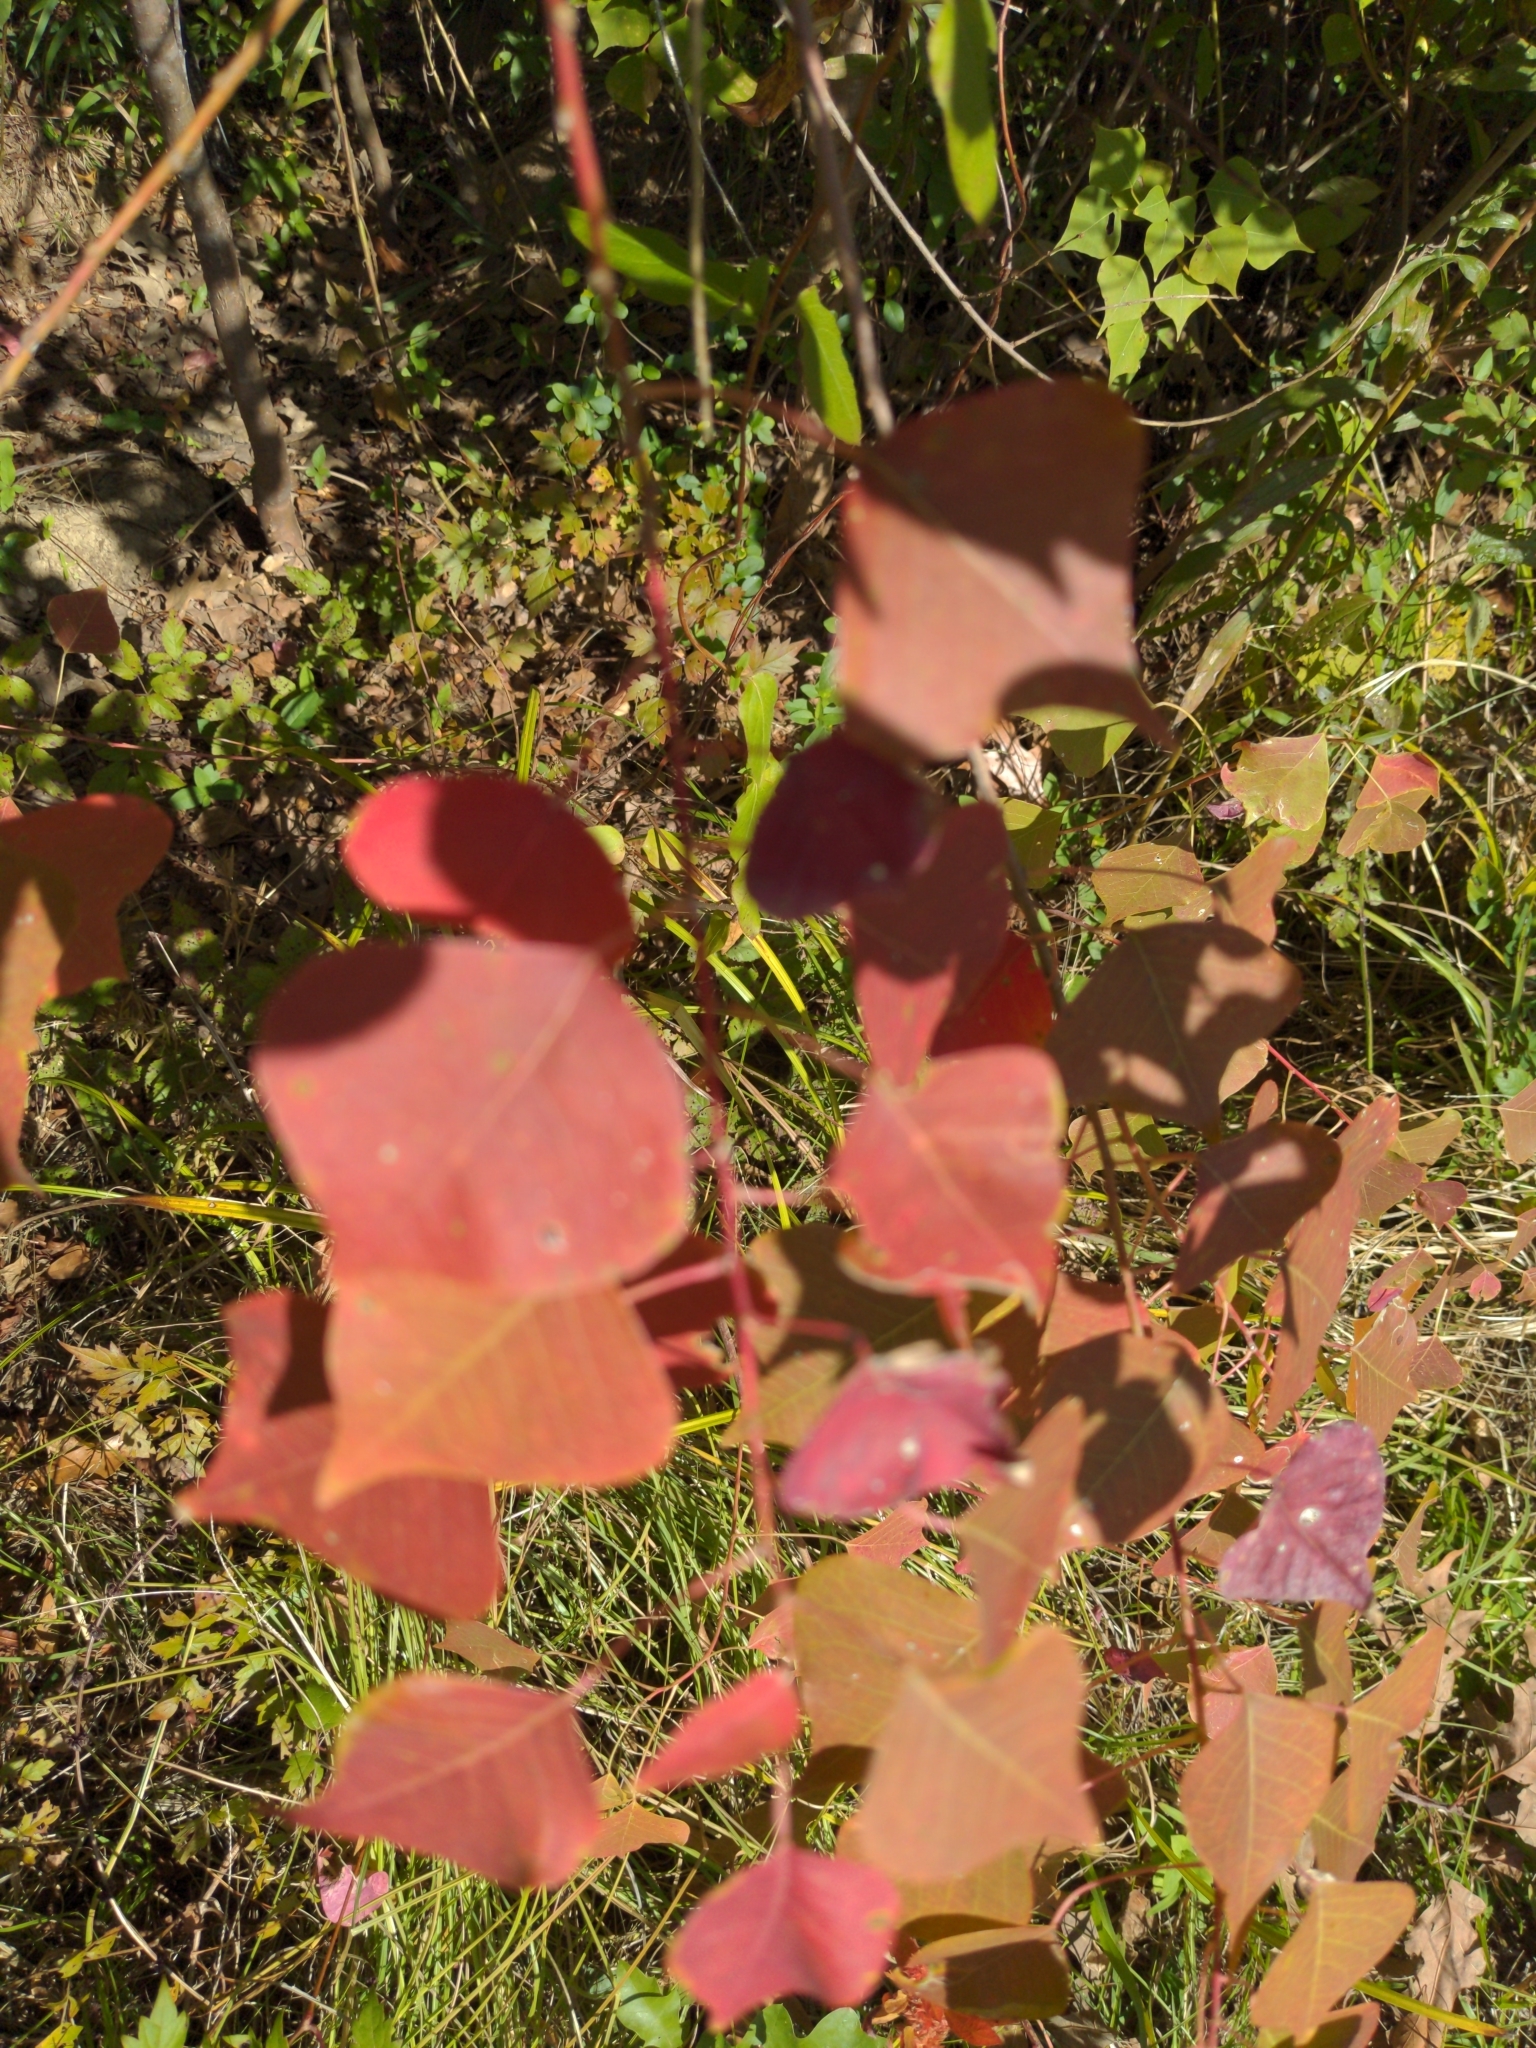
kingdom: Plantae
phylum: Tracheophyta
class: Magnoliopsida
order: Malpighiales
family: Euphorbiaceae
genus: Triadica
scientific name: Triadica sebifera
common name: Chinese tallow
